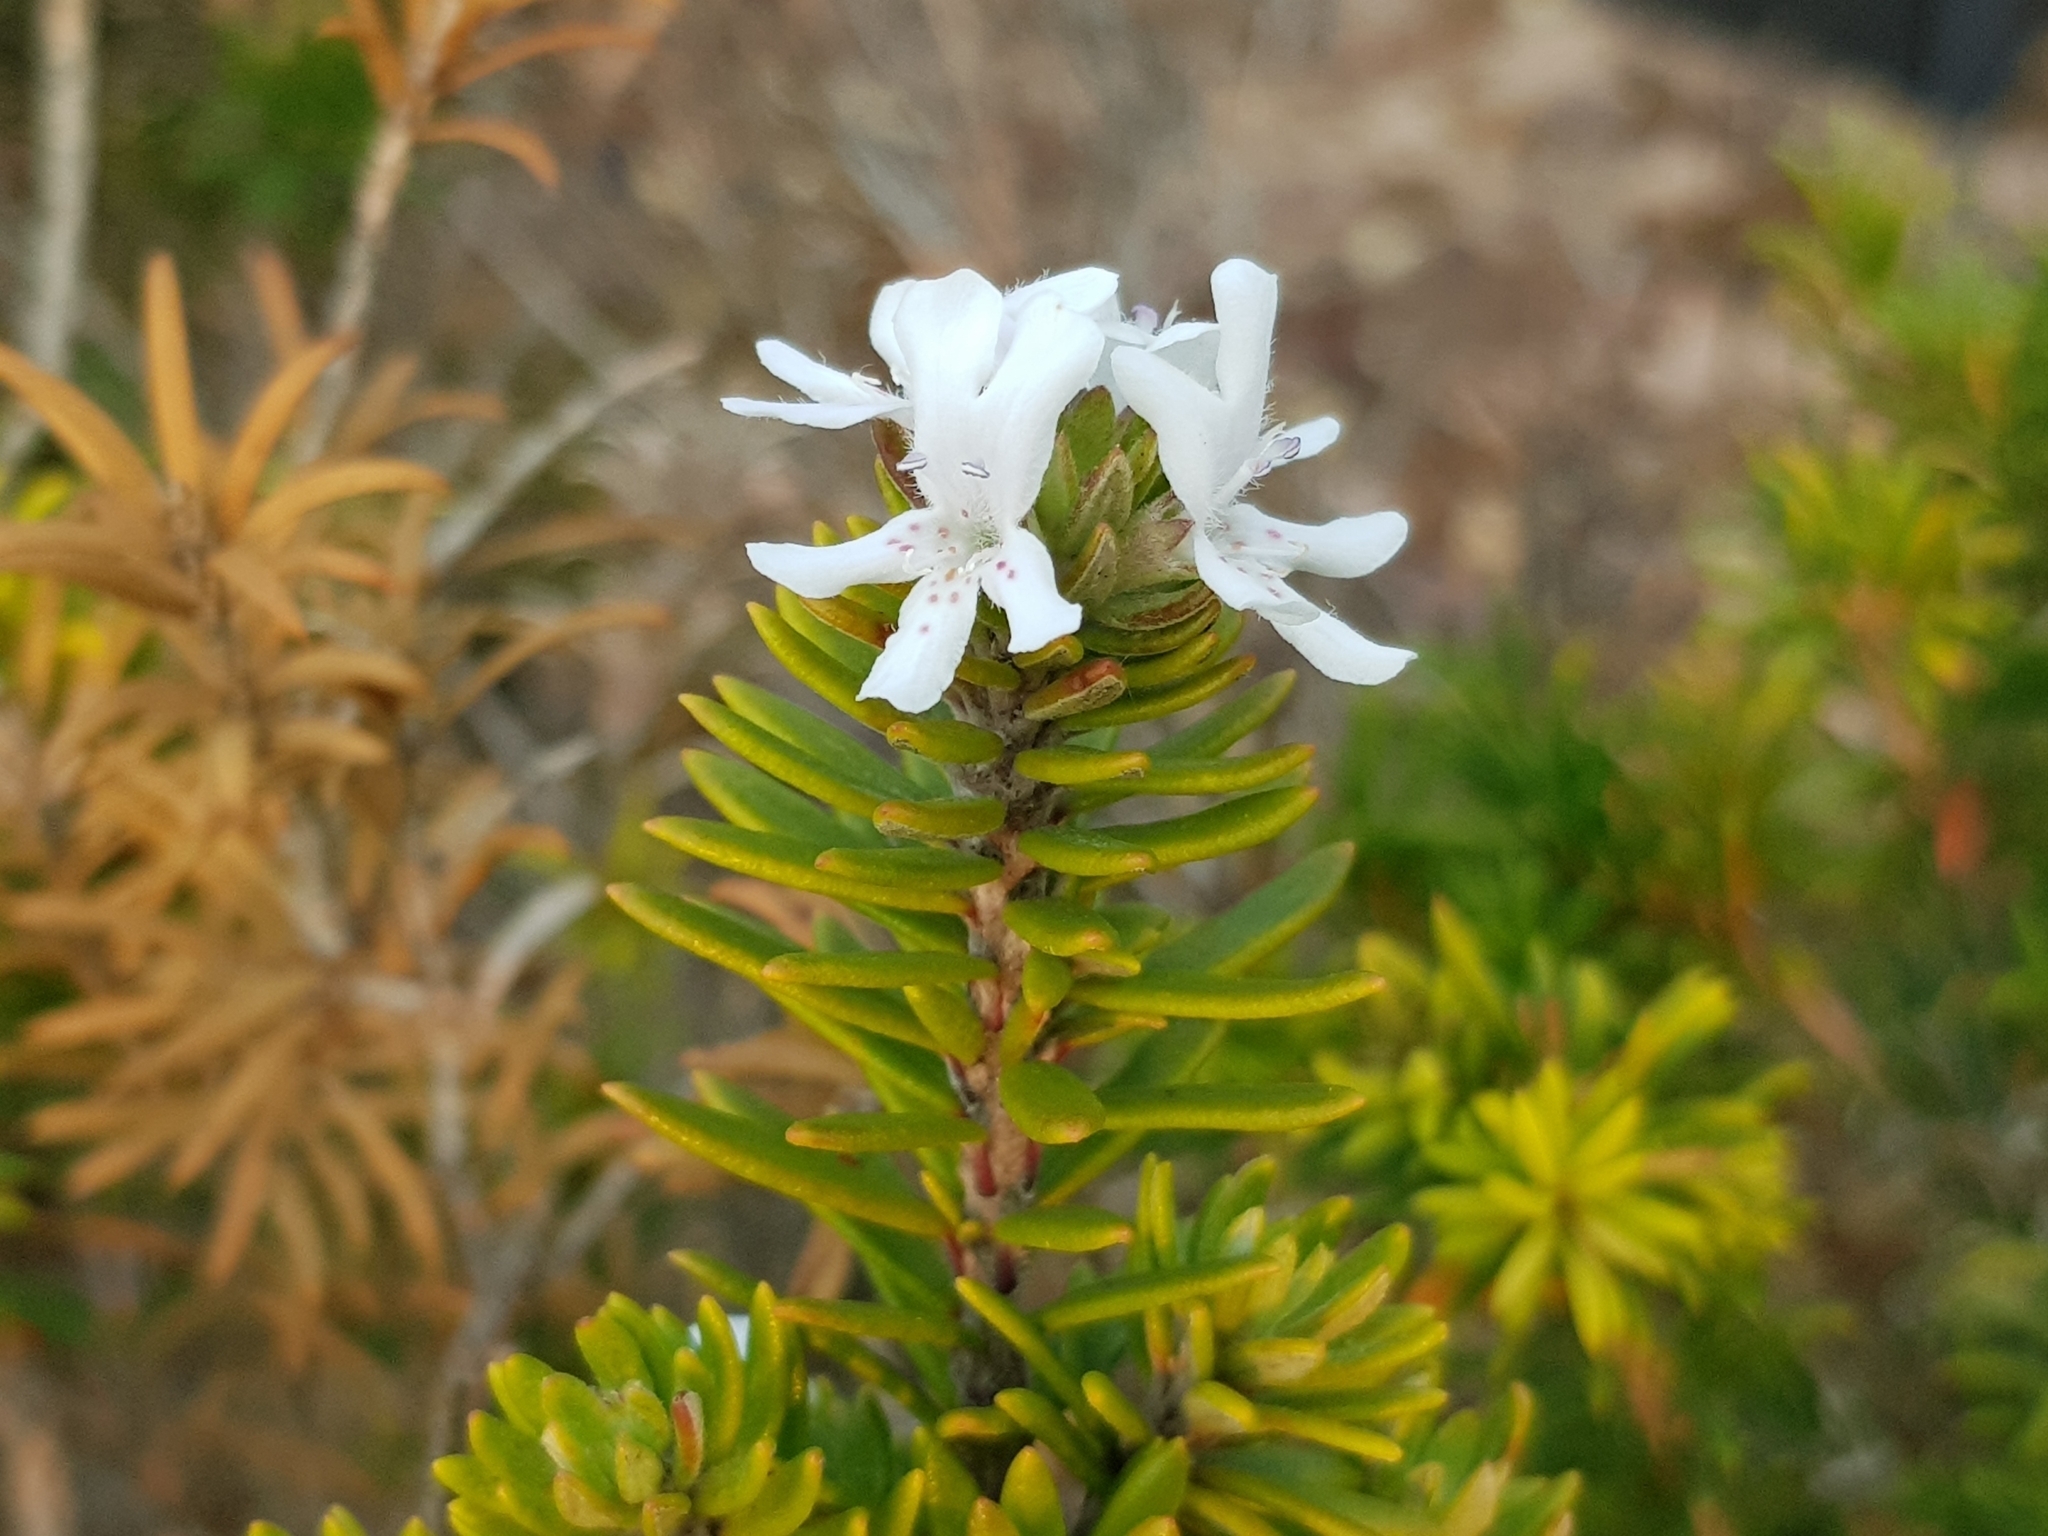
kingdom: Plantae
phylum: Tracheophyta
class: Magnoliopsida
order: Lamiales
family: Lamiaceae
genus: Westringia
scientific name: Westringia fruticosa
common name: Coastal-rosemary
